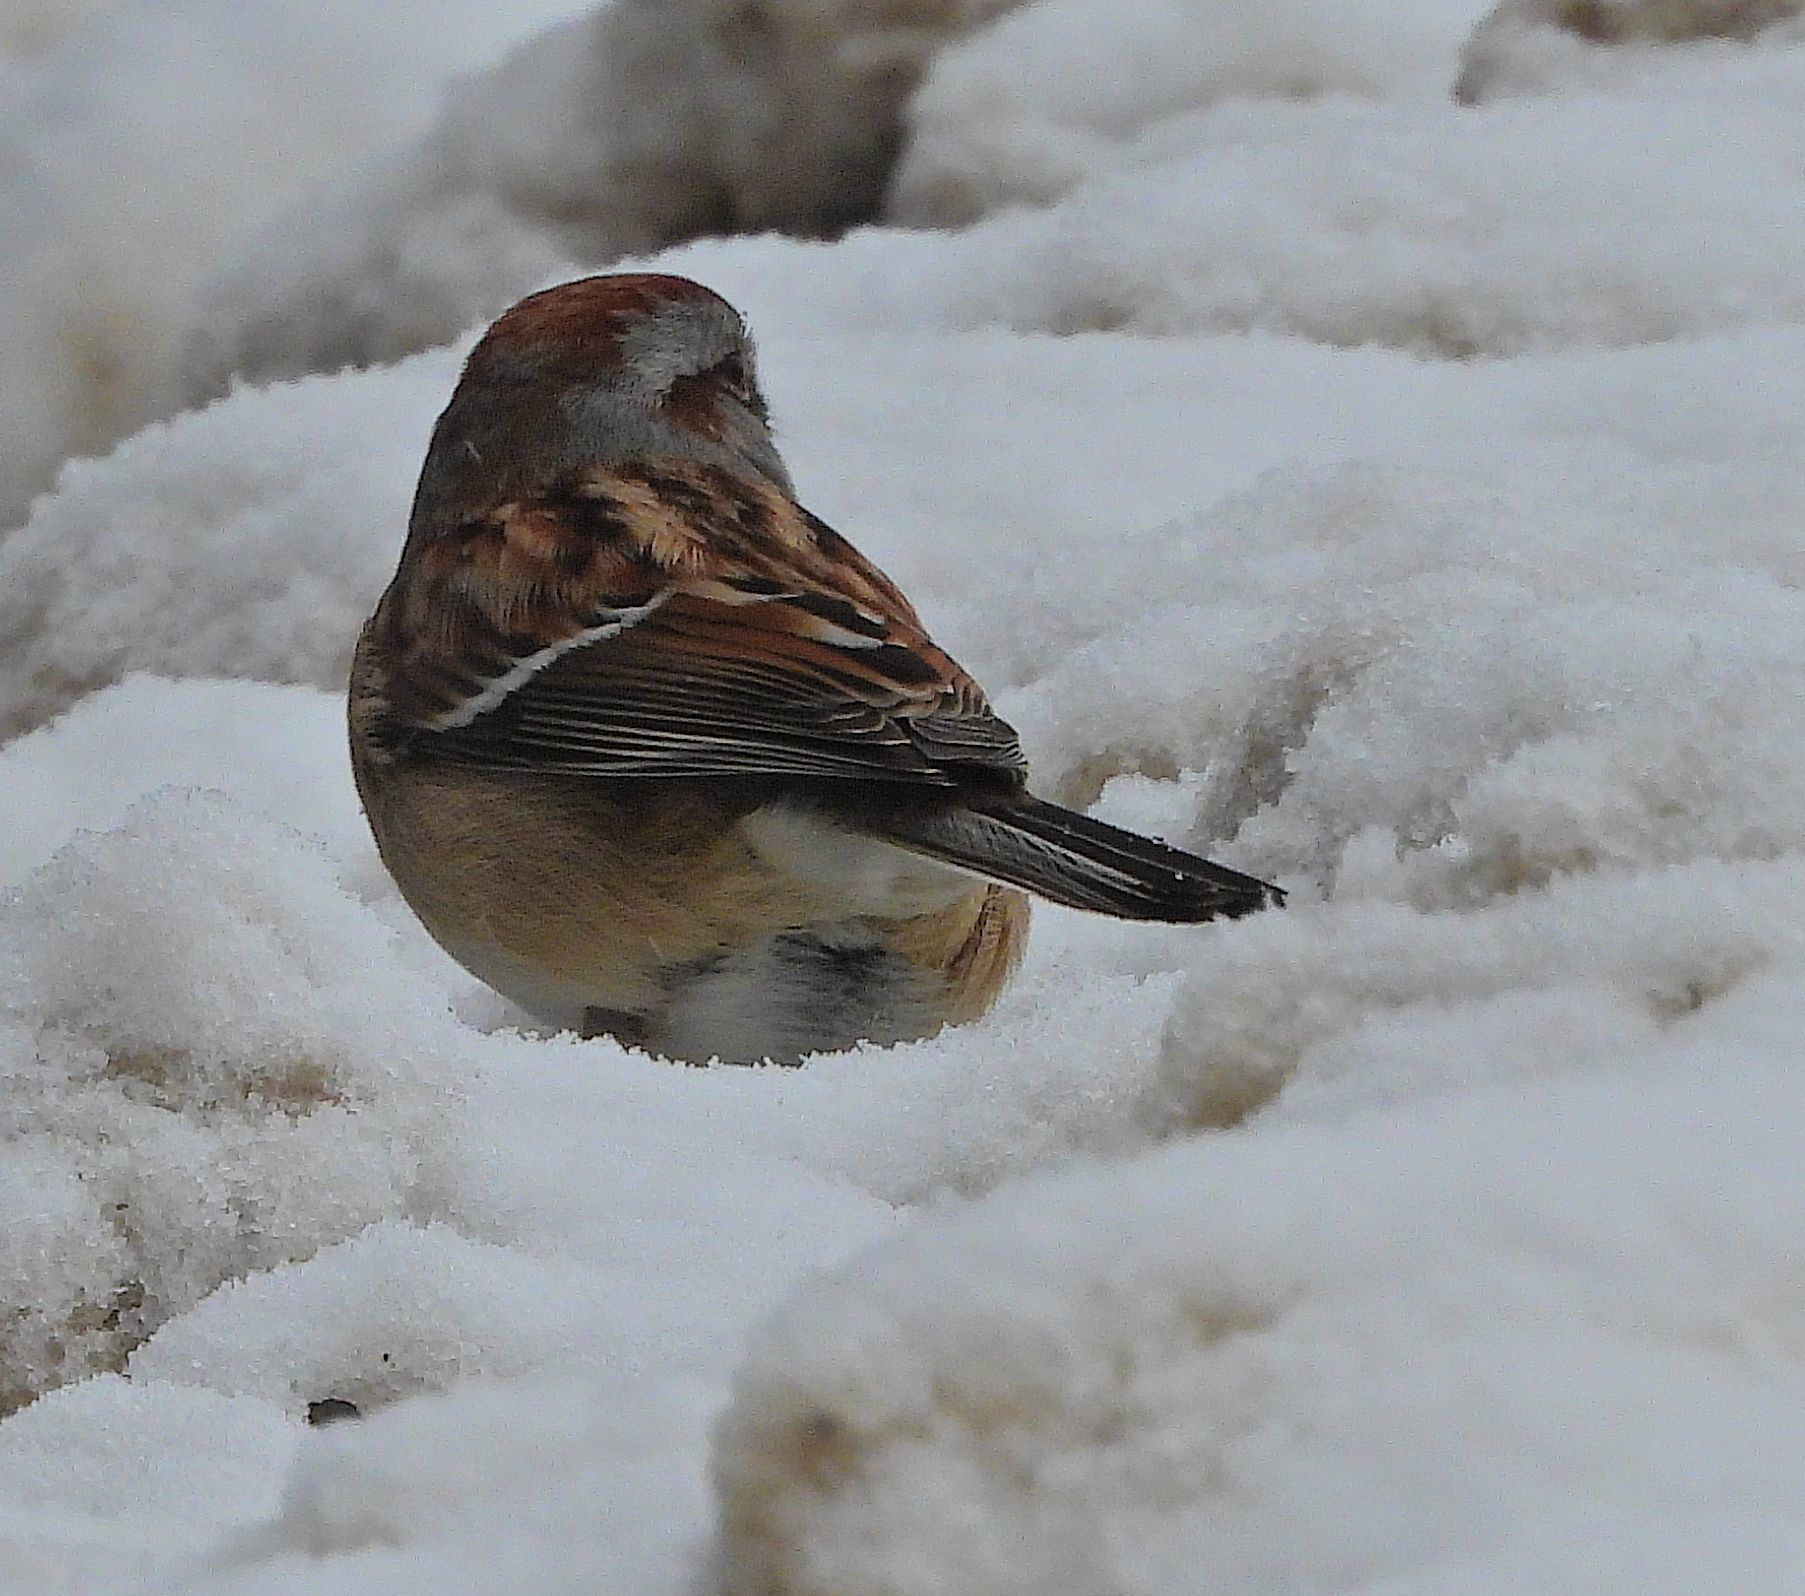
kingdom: Animalia
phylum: Chordata
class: Aves
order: Passeriformes
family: Passerellidae
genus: Spizelloides
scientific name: Spizelloides arborea
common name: American tree sparrow
